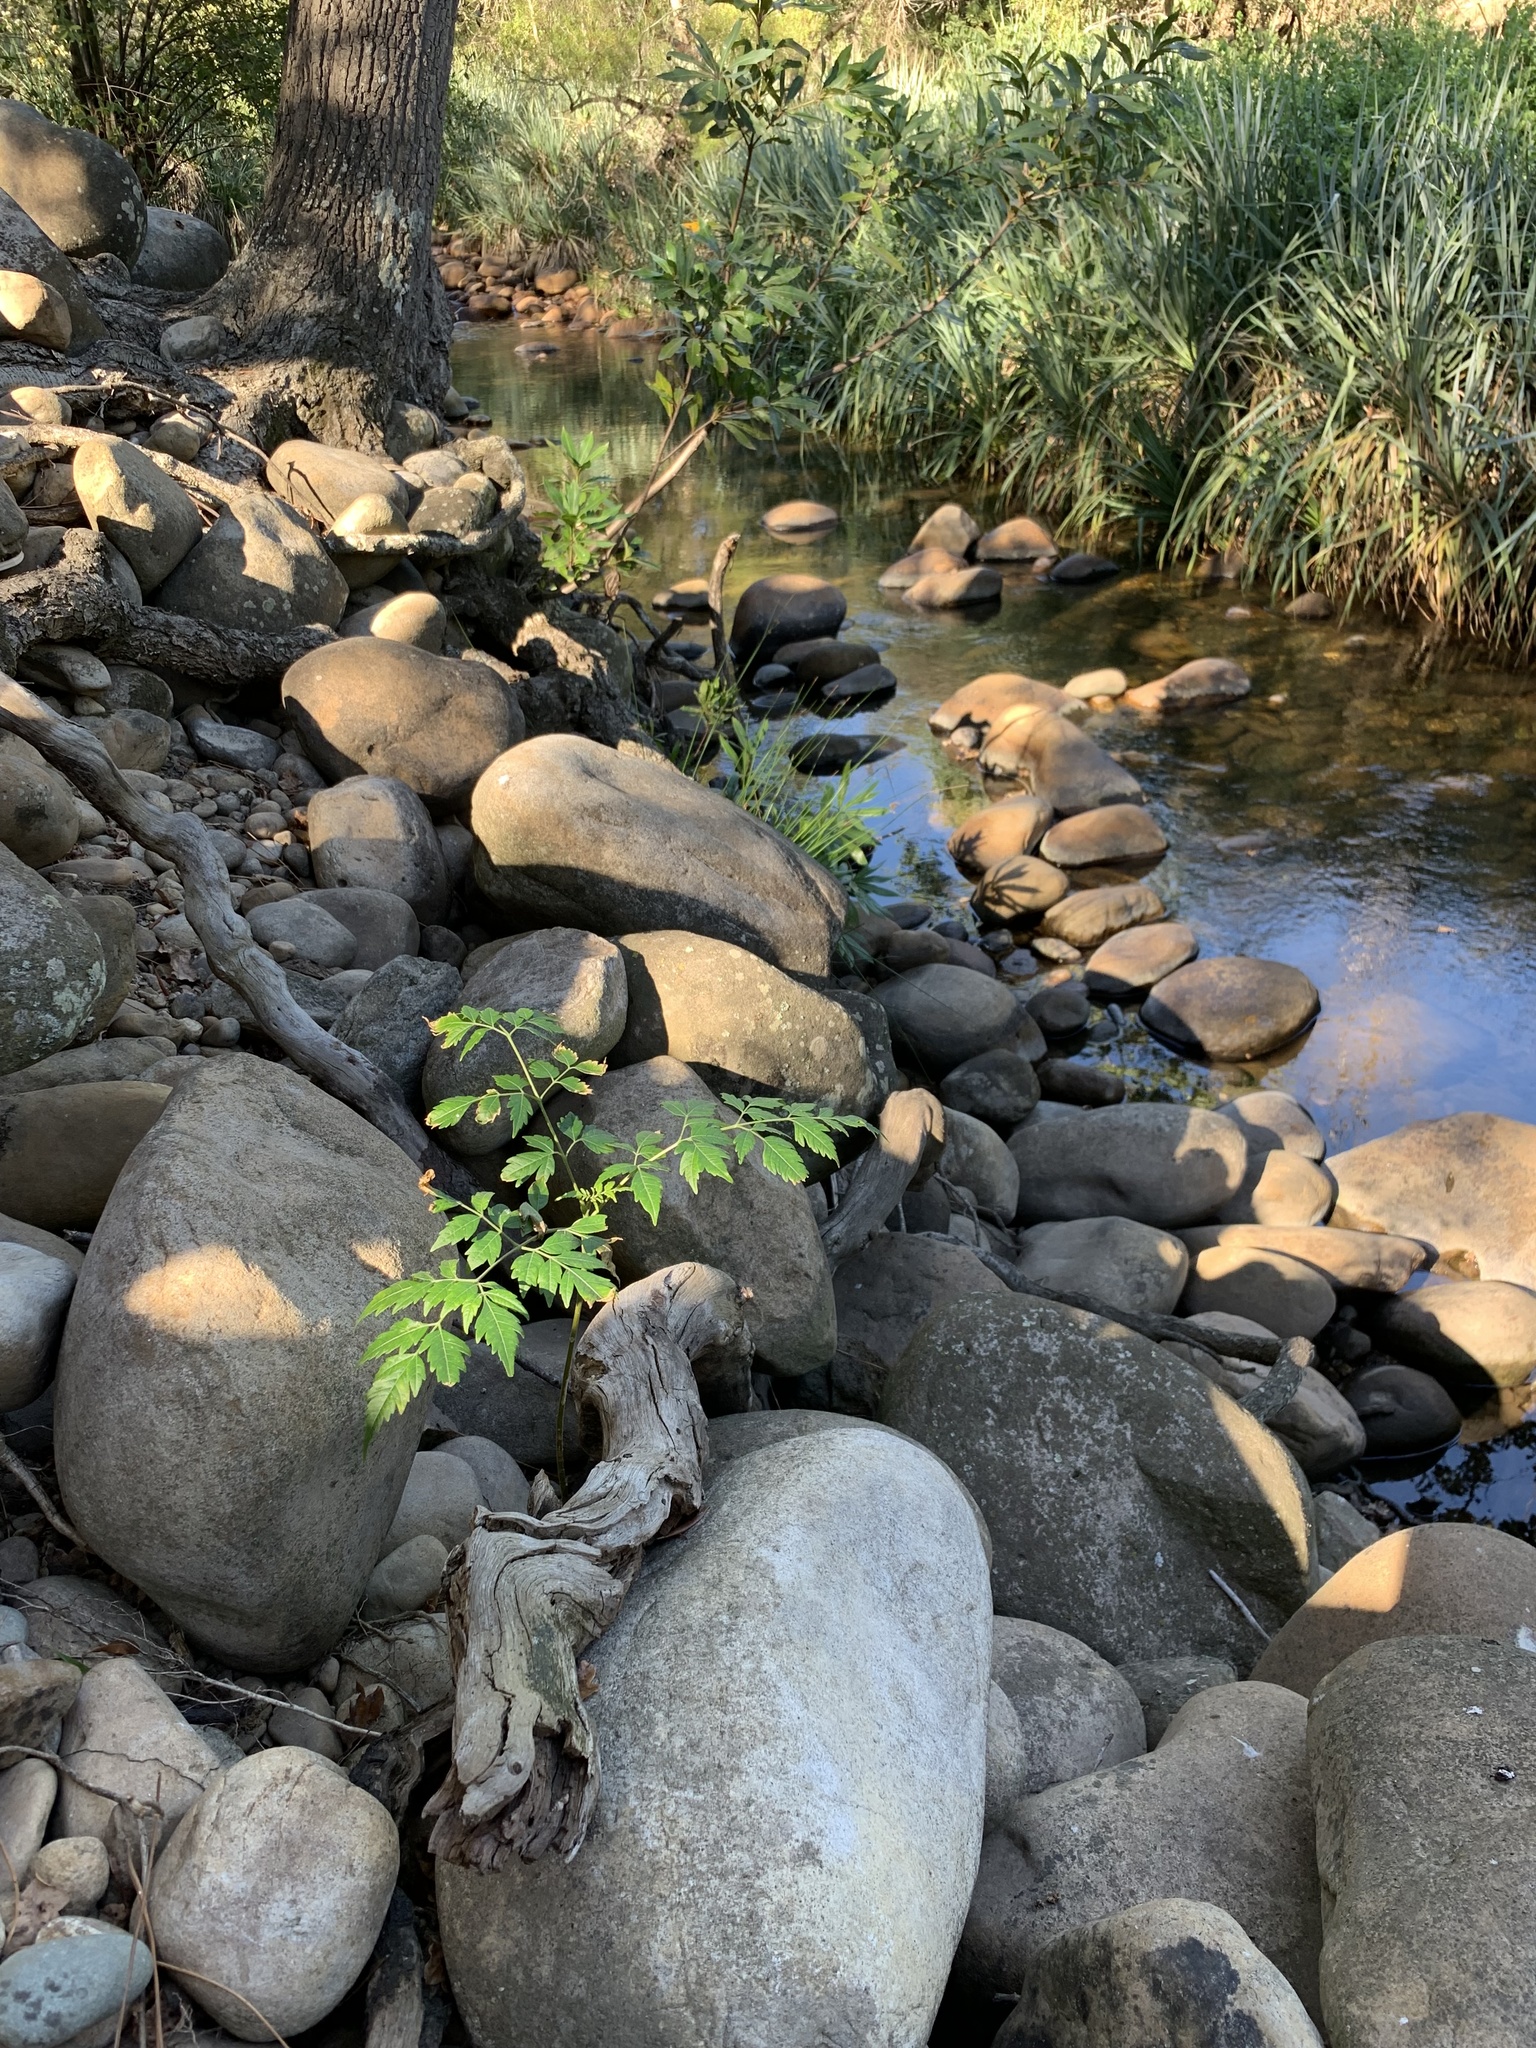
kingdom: Plantae
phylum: Tracheophyta
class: Magnoliopsida
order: Sapindales
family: Meliaceae
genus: Melia
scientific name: Melia azedarach
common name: Chinaberrytree
